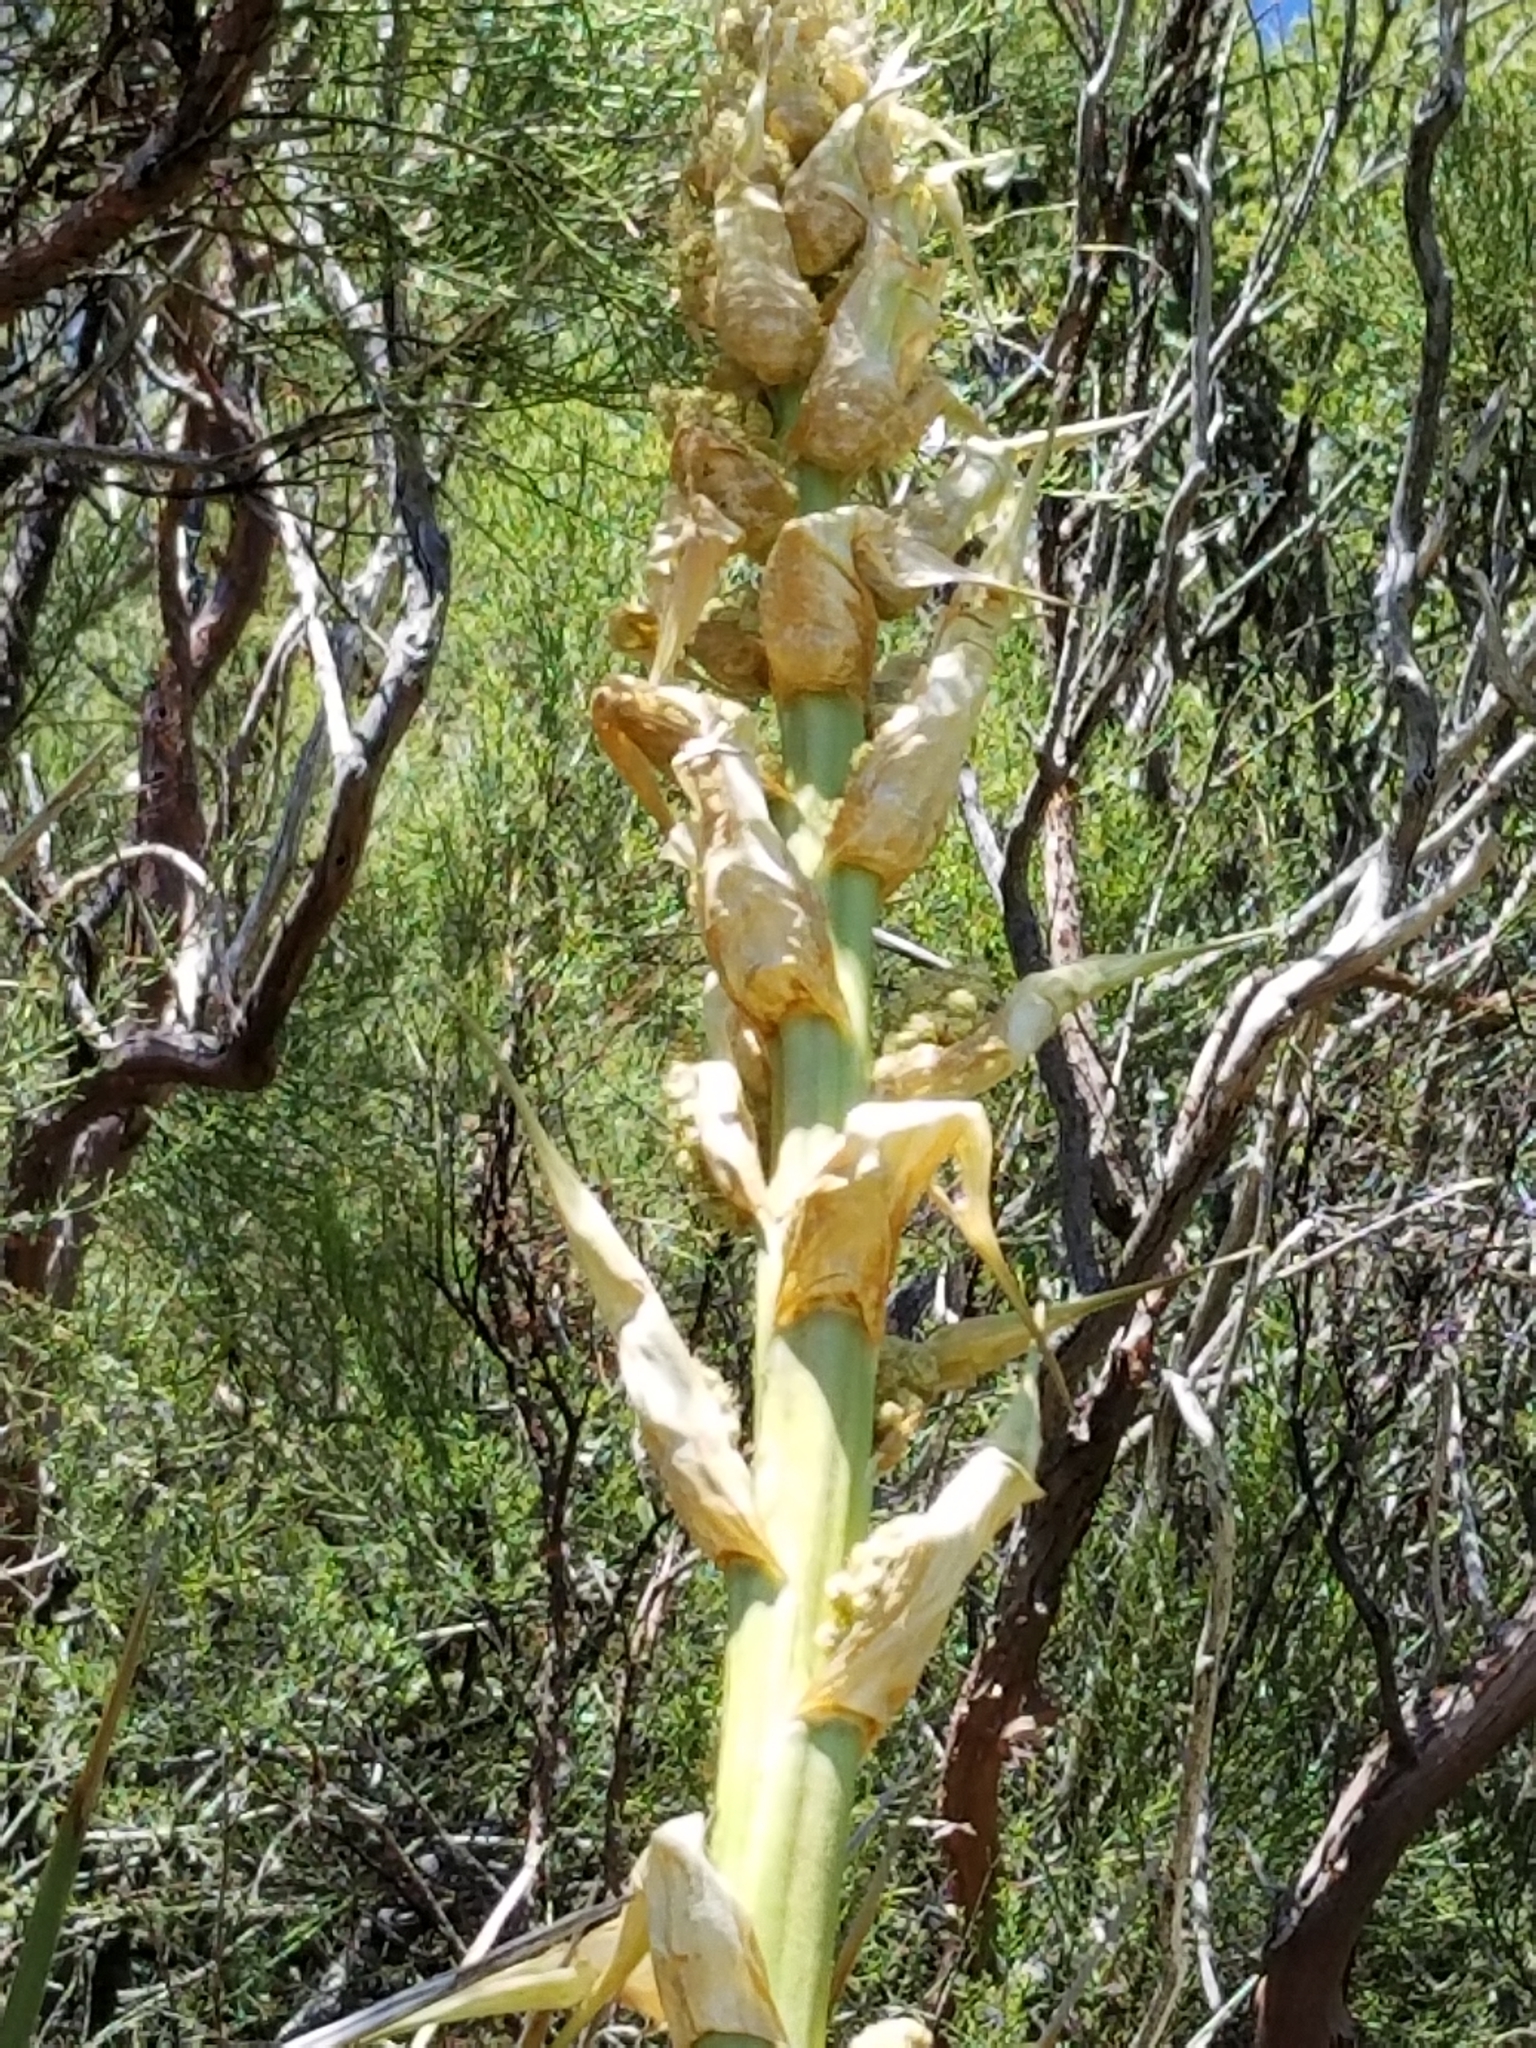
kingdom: Plantae
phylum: Tracheophyta
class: Liliopsida
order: Asparagales
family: Asparagaceae
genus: Nolina
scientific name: Nolina parryi
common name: Parry nolina
